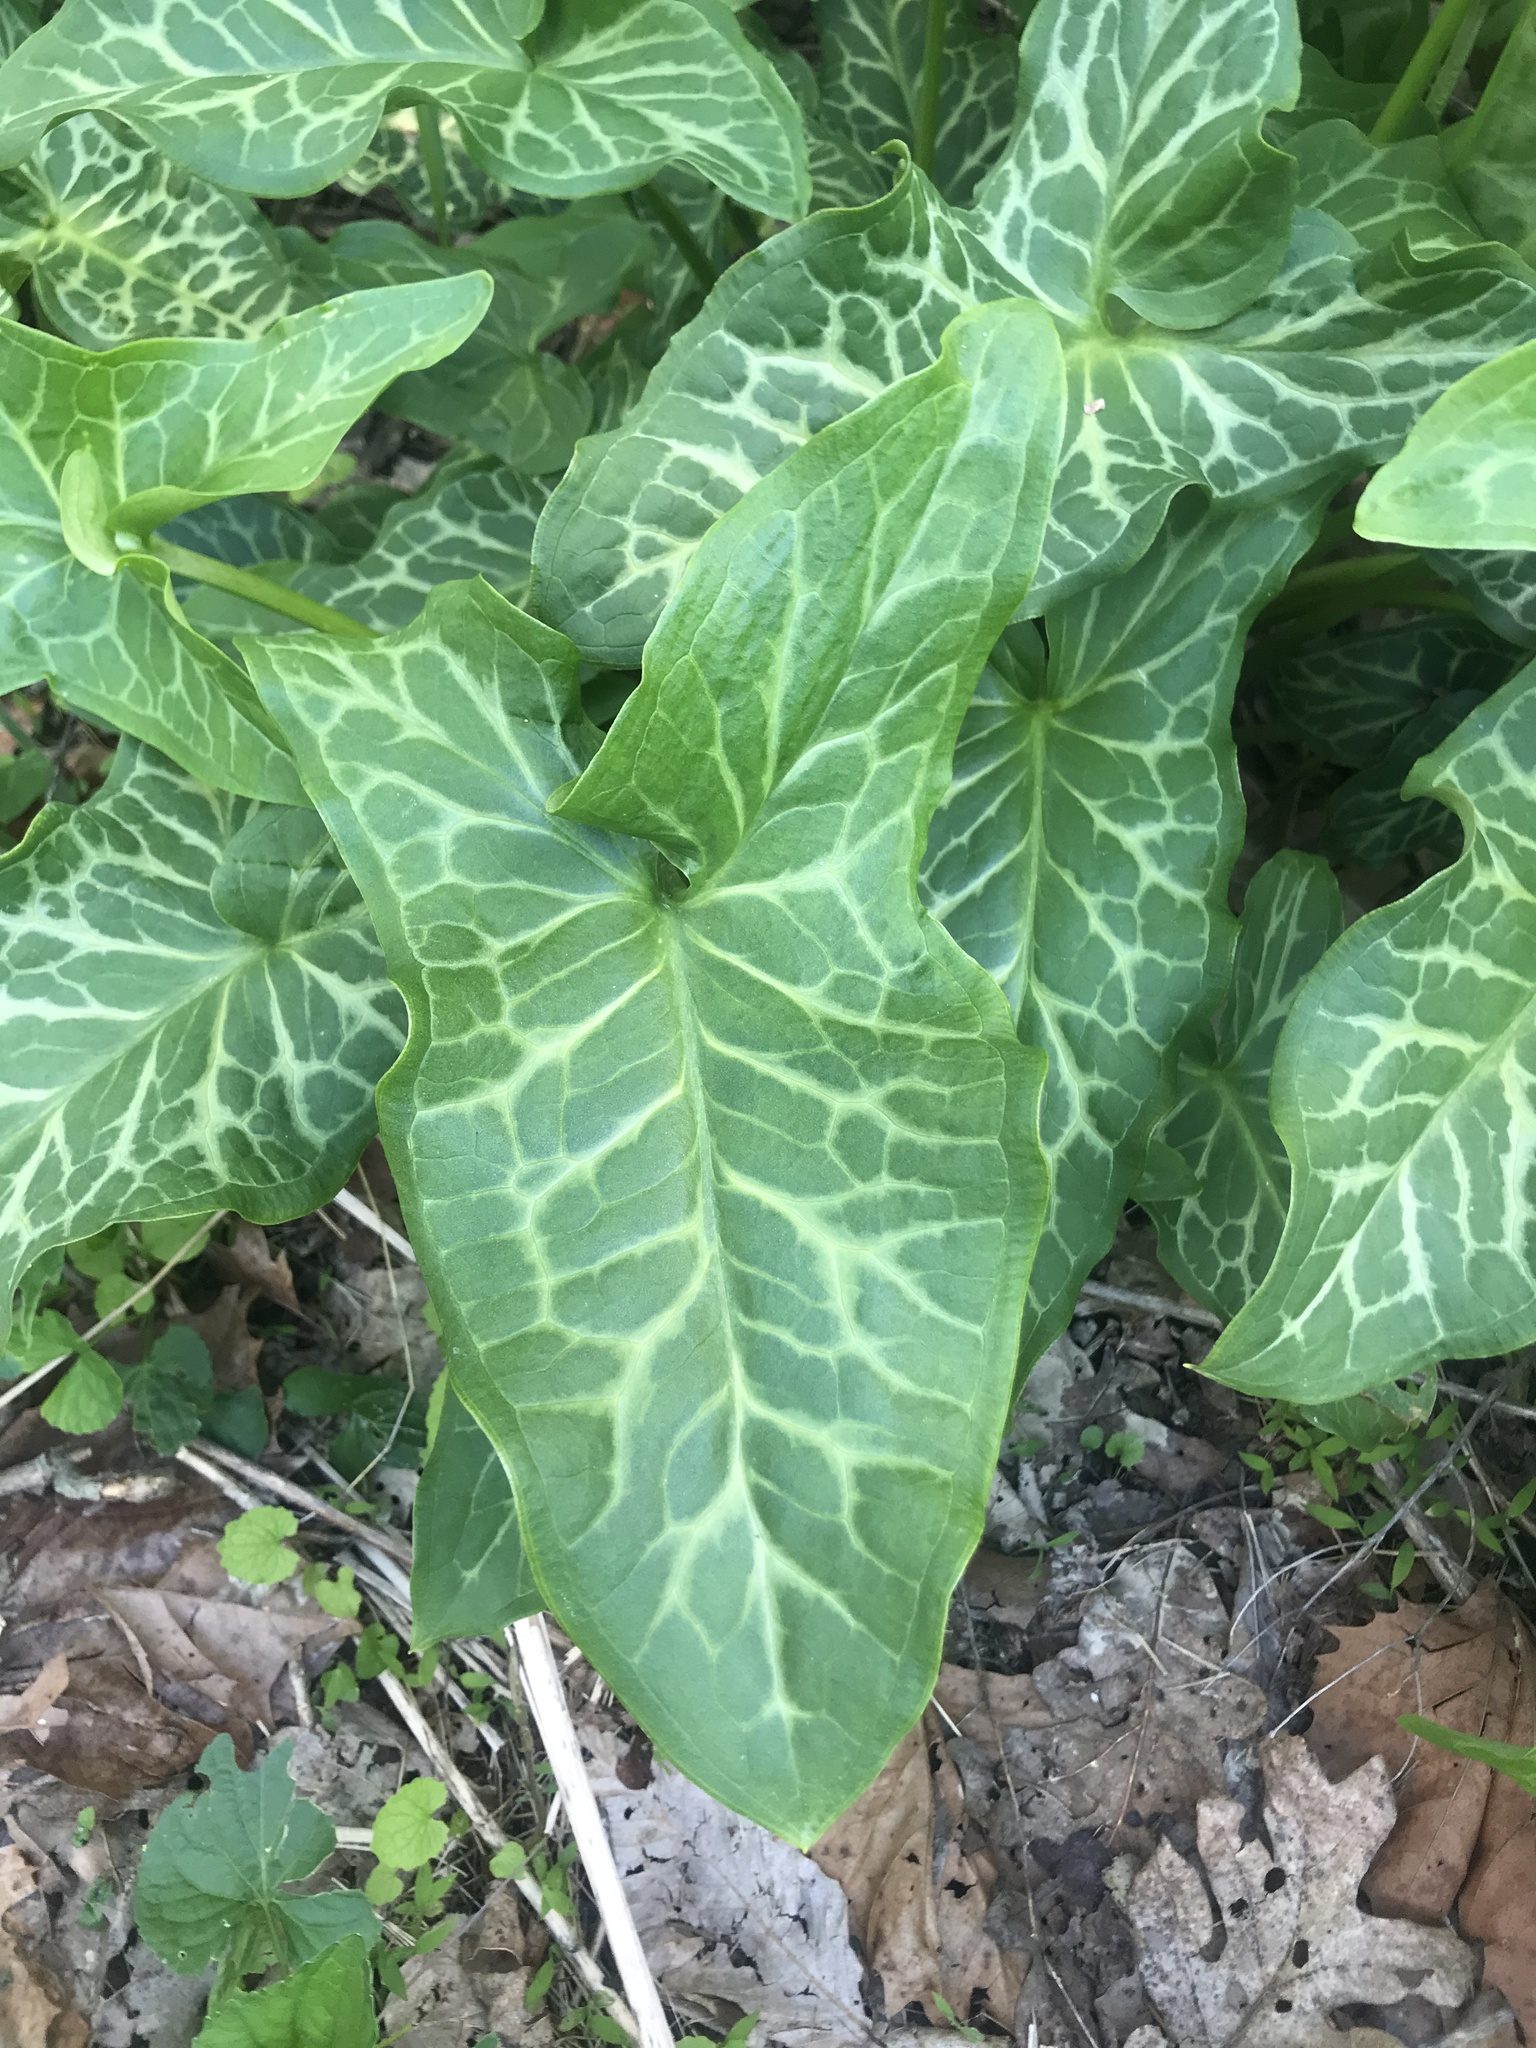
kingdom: Plantae
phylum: Tracheophyta
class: Liliopsida
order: Alismatales
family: Araceae
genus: Arum
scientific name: Arum italicum
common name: Italian lords-and-ladies
